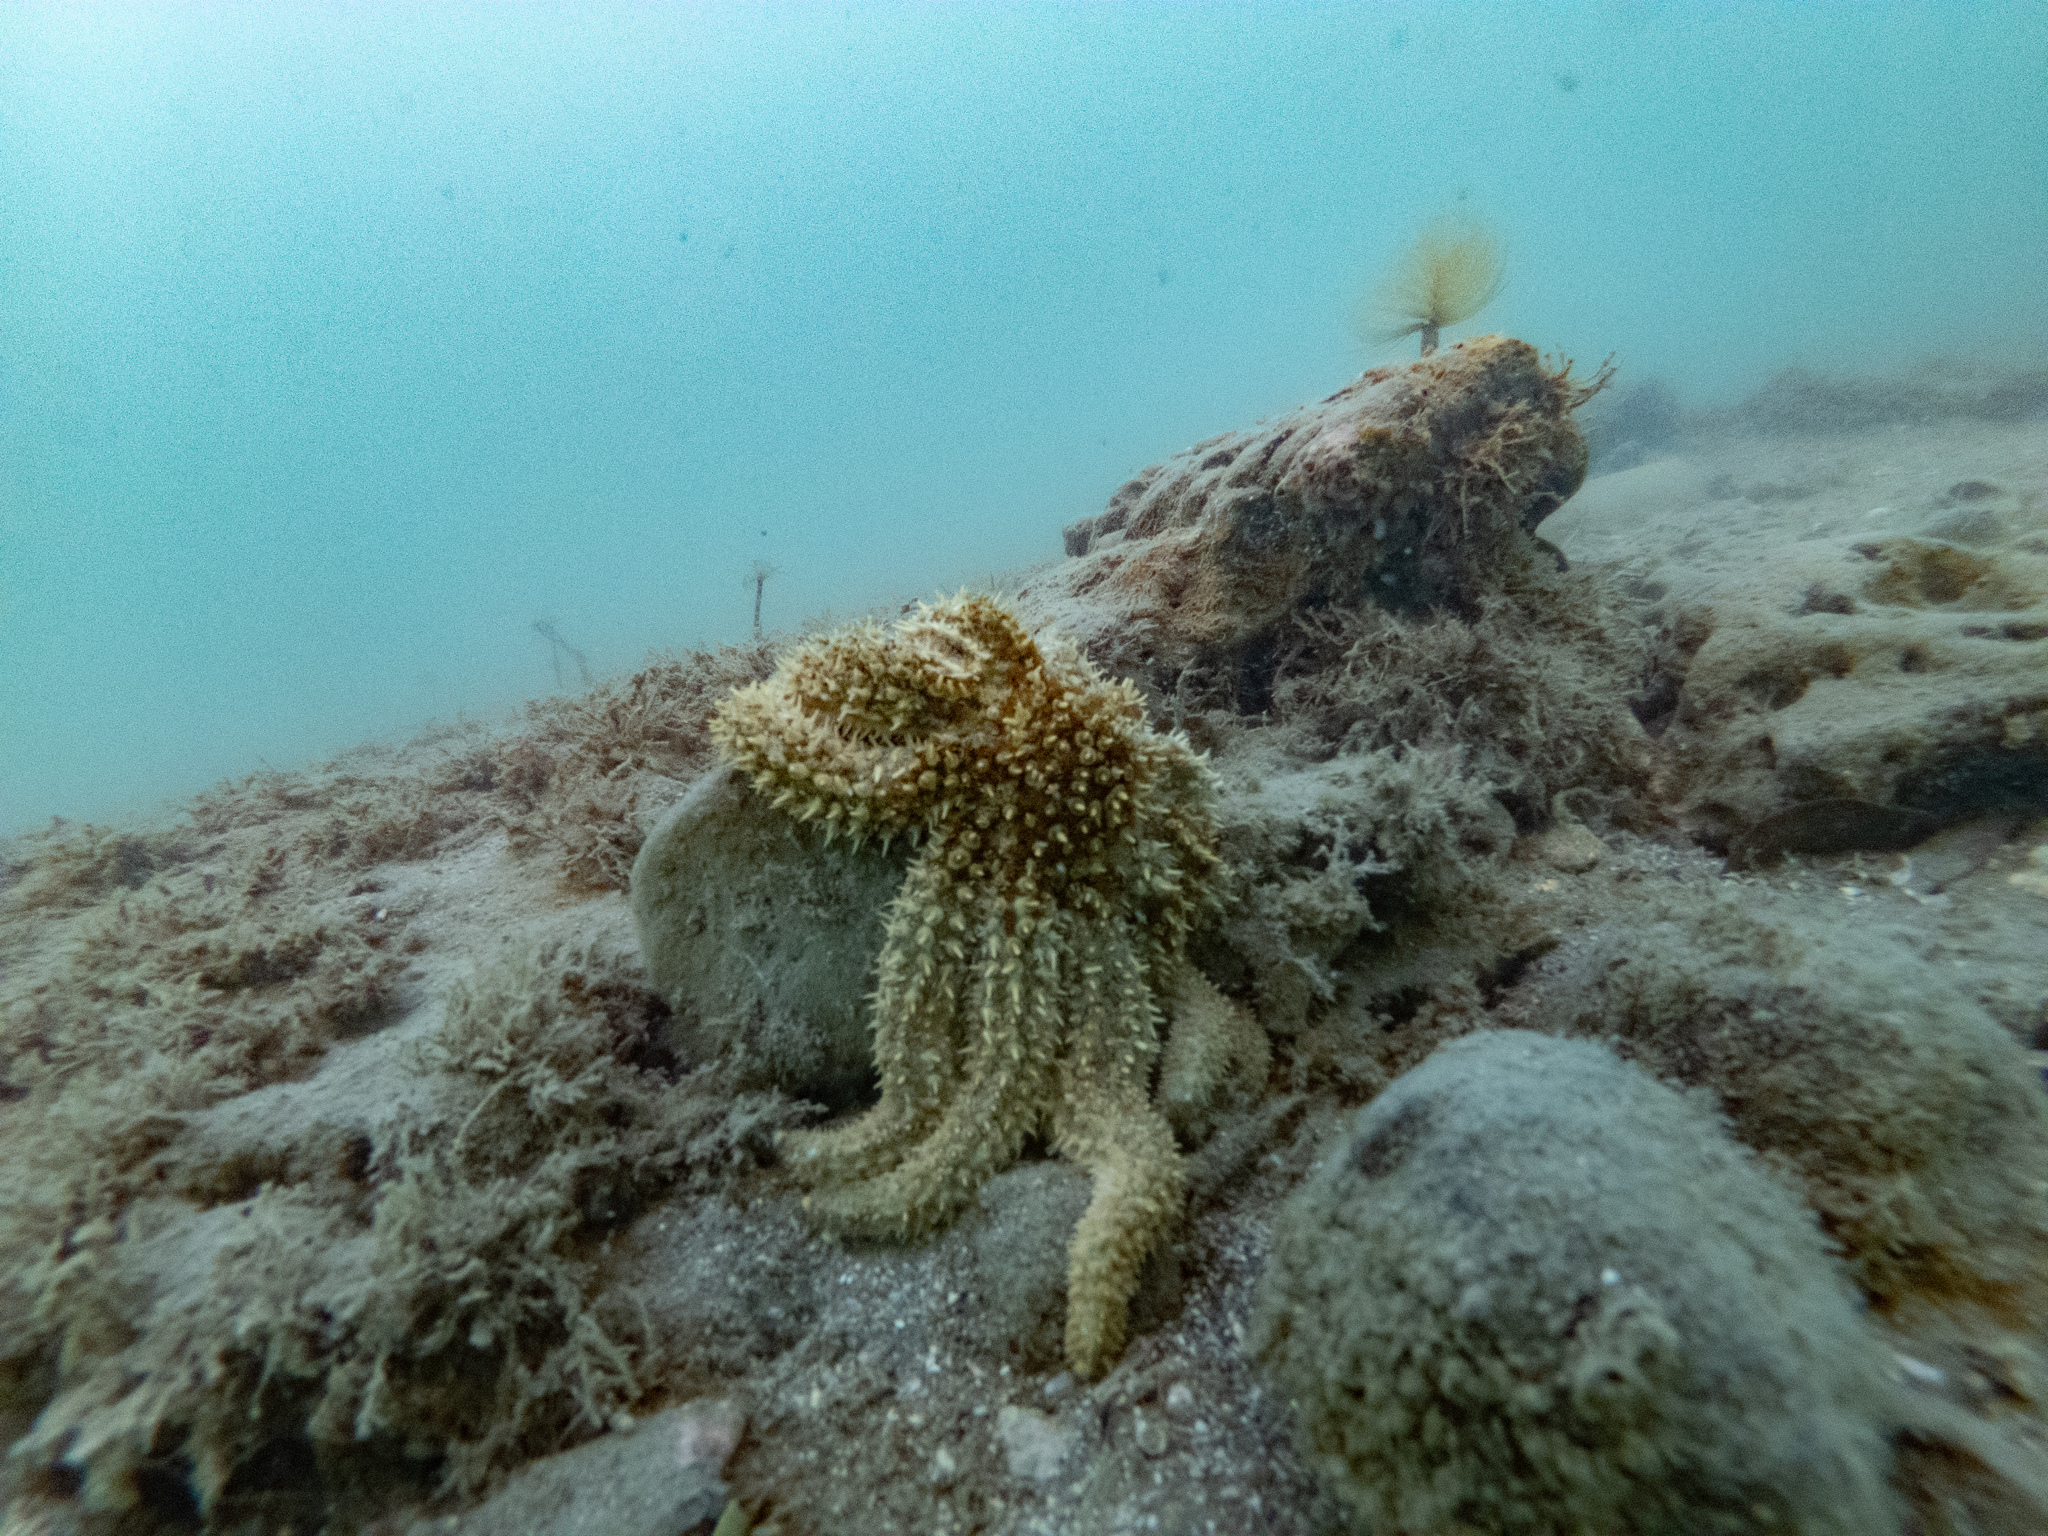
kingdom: Animalia
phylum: Echinodermata
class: Asteroidea
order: Forcipulatida
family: Asteriidae
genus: Coscinasterias
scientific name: Coscinasterias muricata
